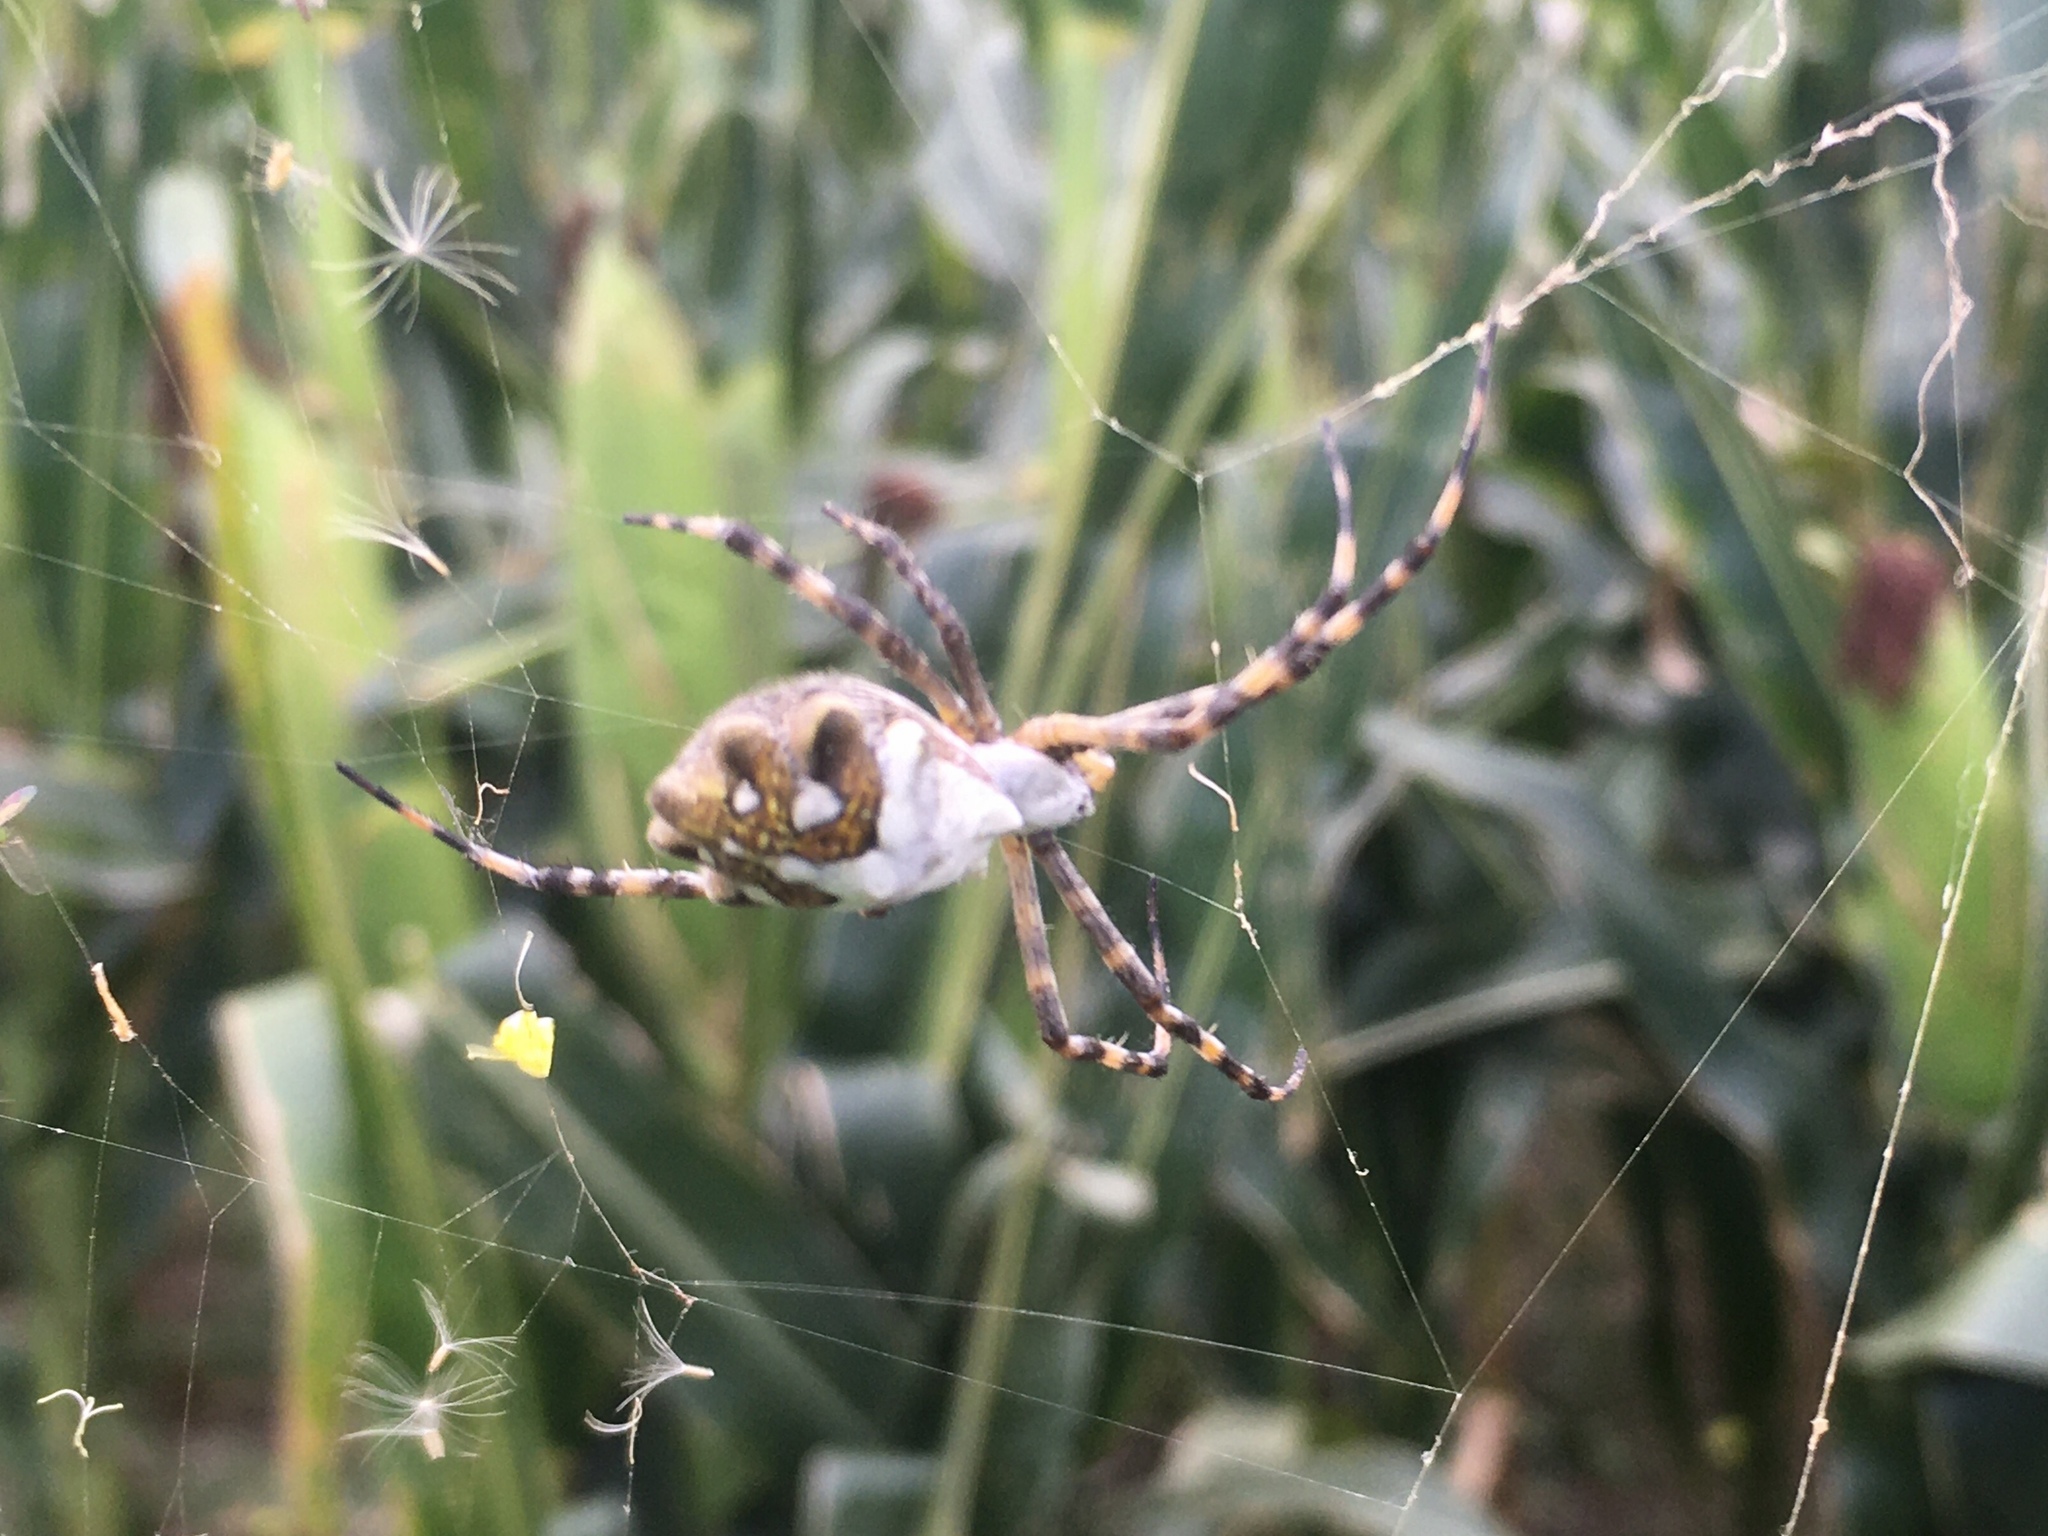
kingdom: Animalia
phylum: Arthropoda
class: Arachnida
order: Araneae
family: Araneidae
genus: Argiope
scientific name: Argiope argentata
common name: Orb weavers
